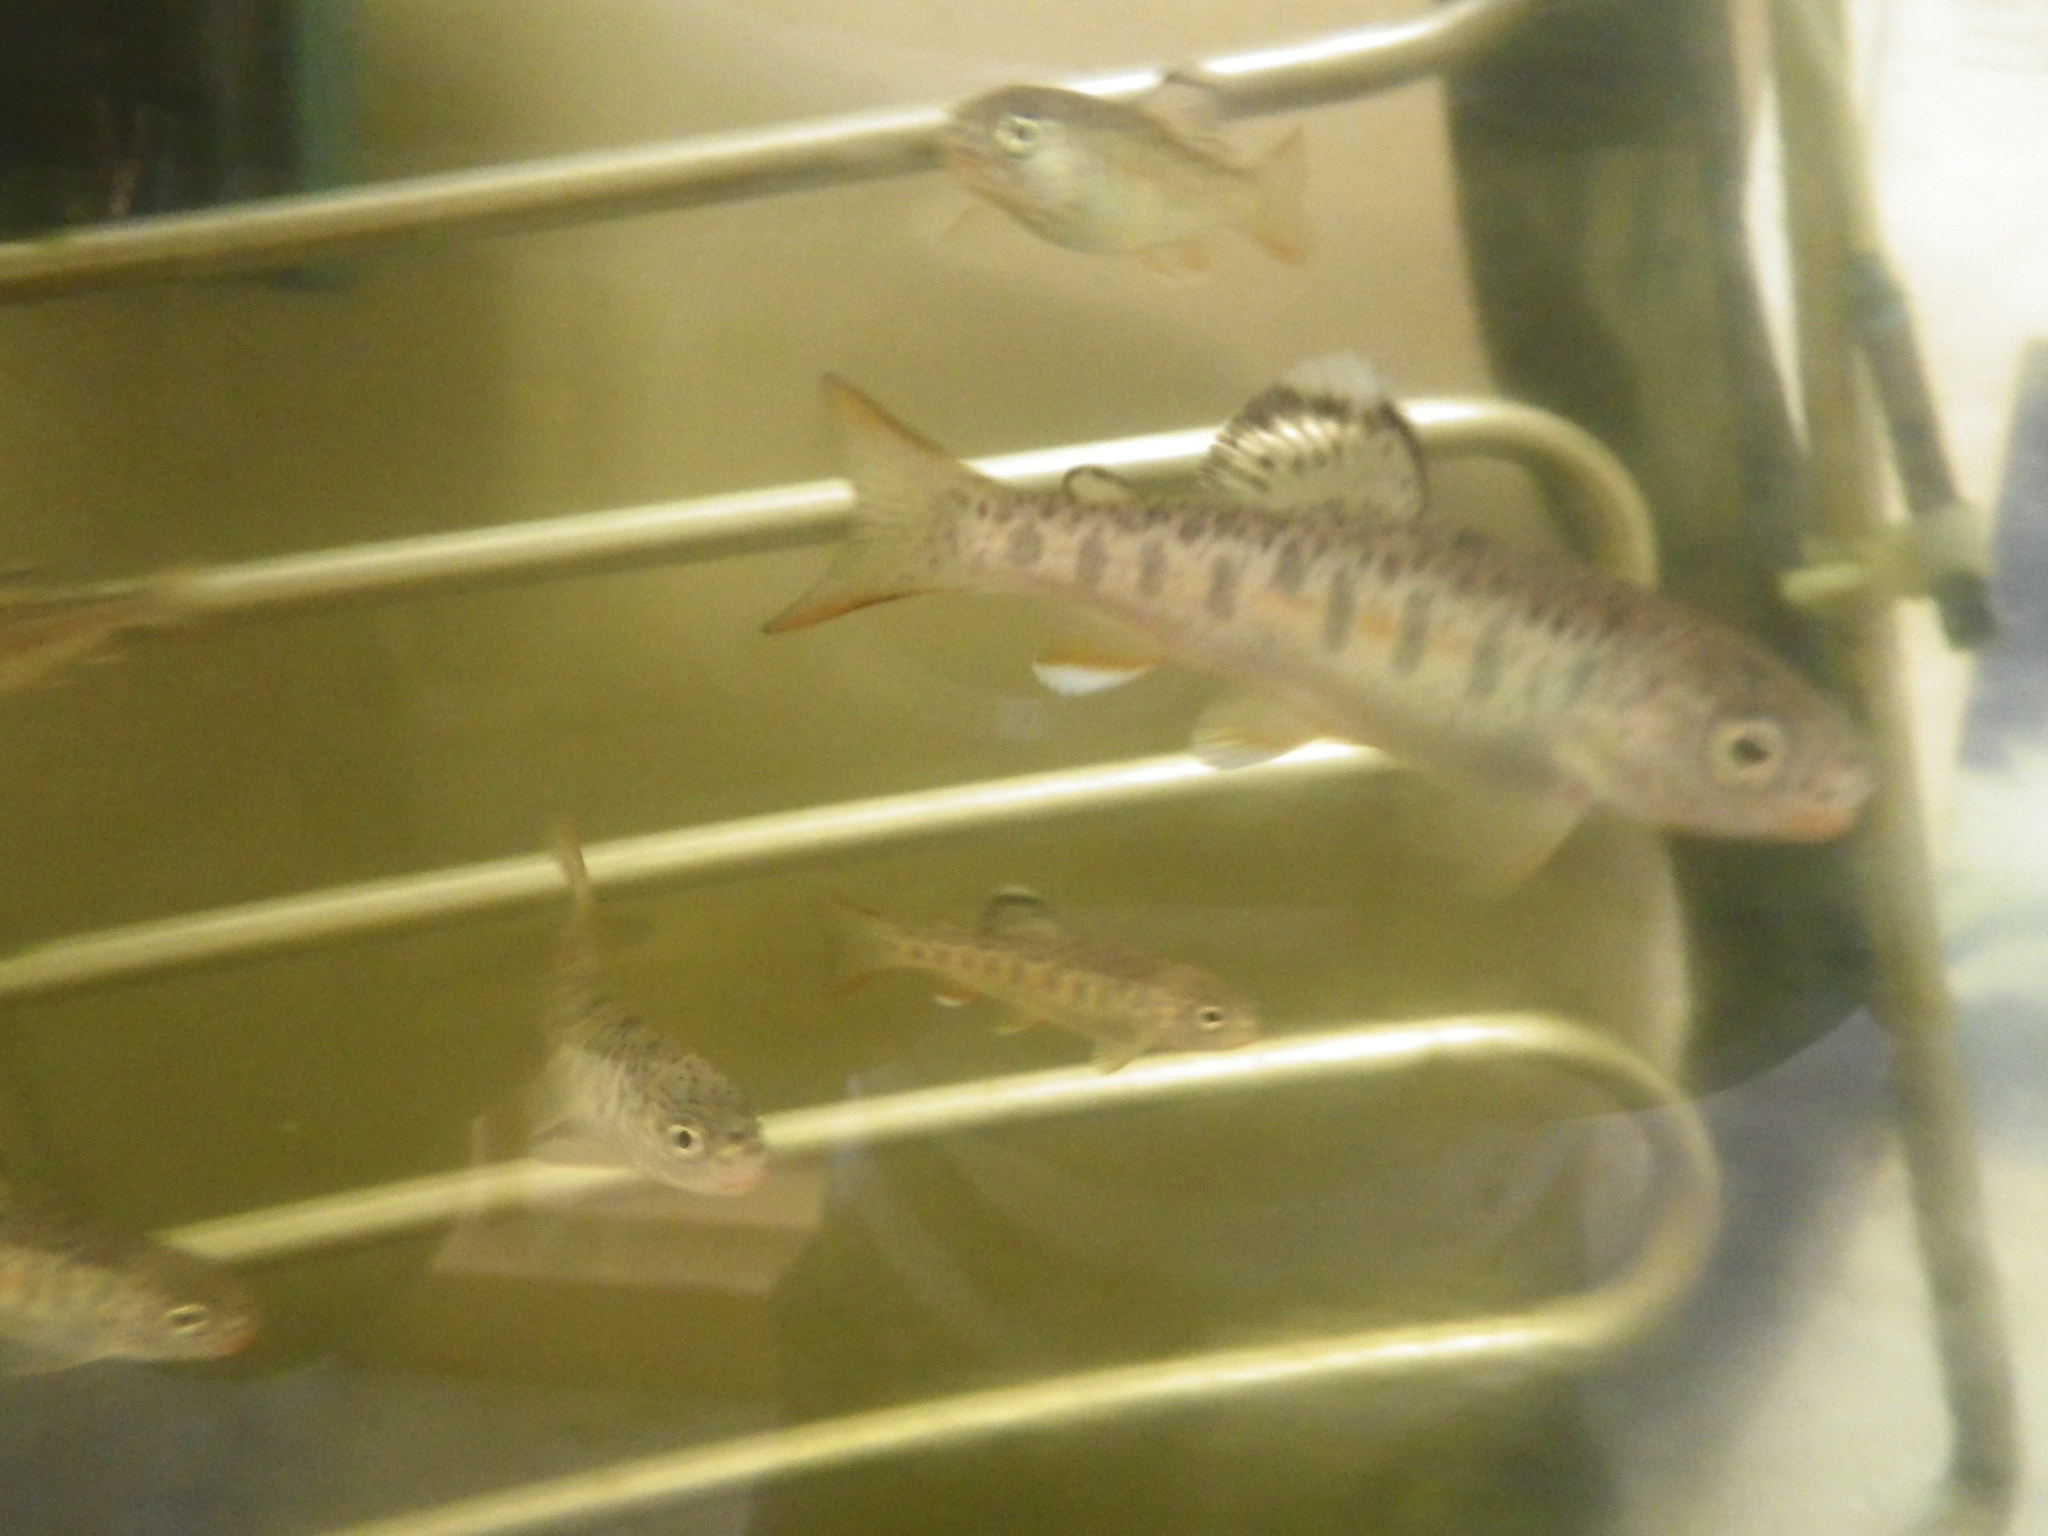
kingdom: Animalia
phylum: Chordata
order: Salmoniformes
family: Salmonidae
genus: Oncorhynchus
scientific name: Oncorhynchus mykiss
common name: Rainbow trout
